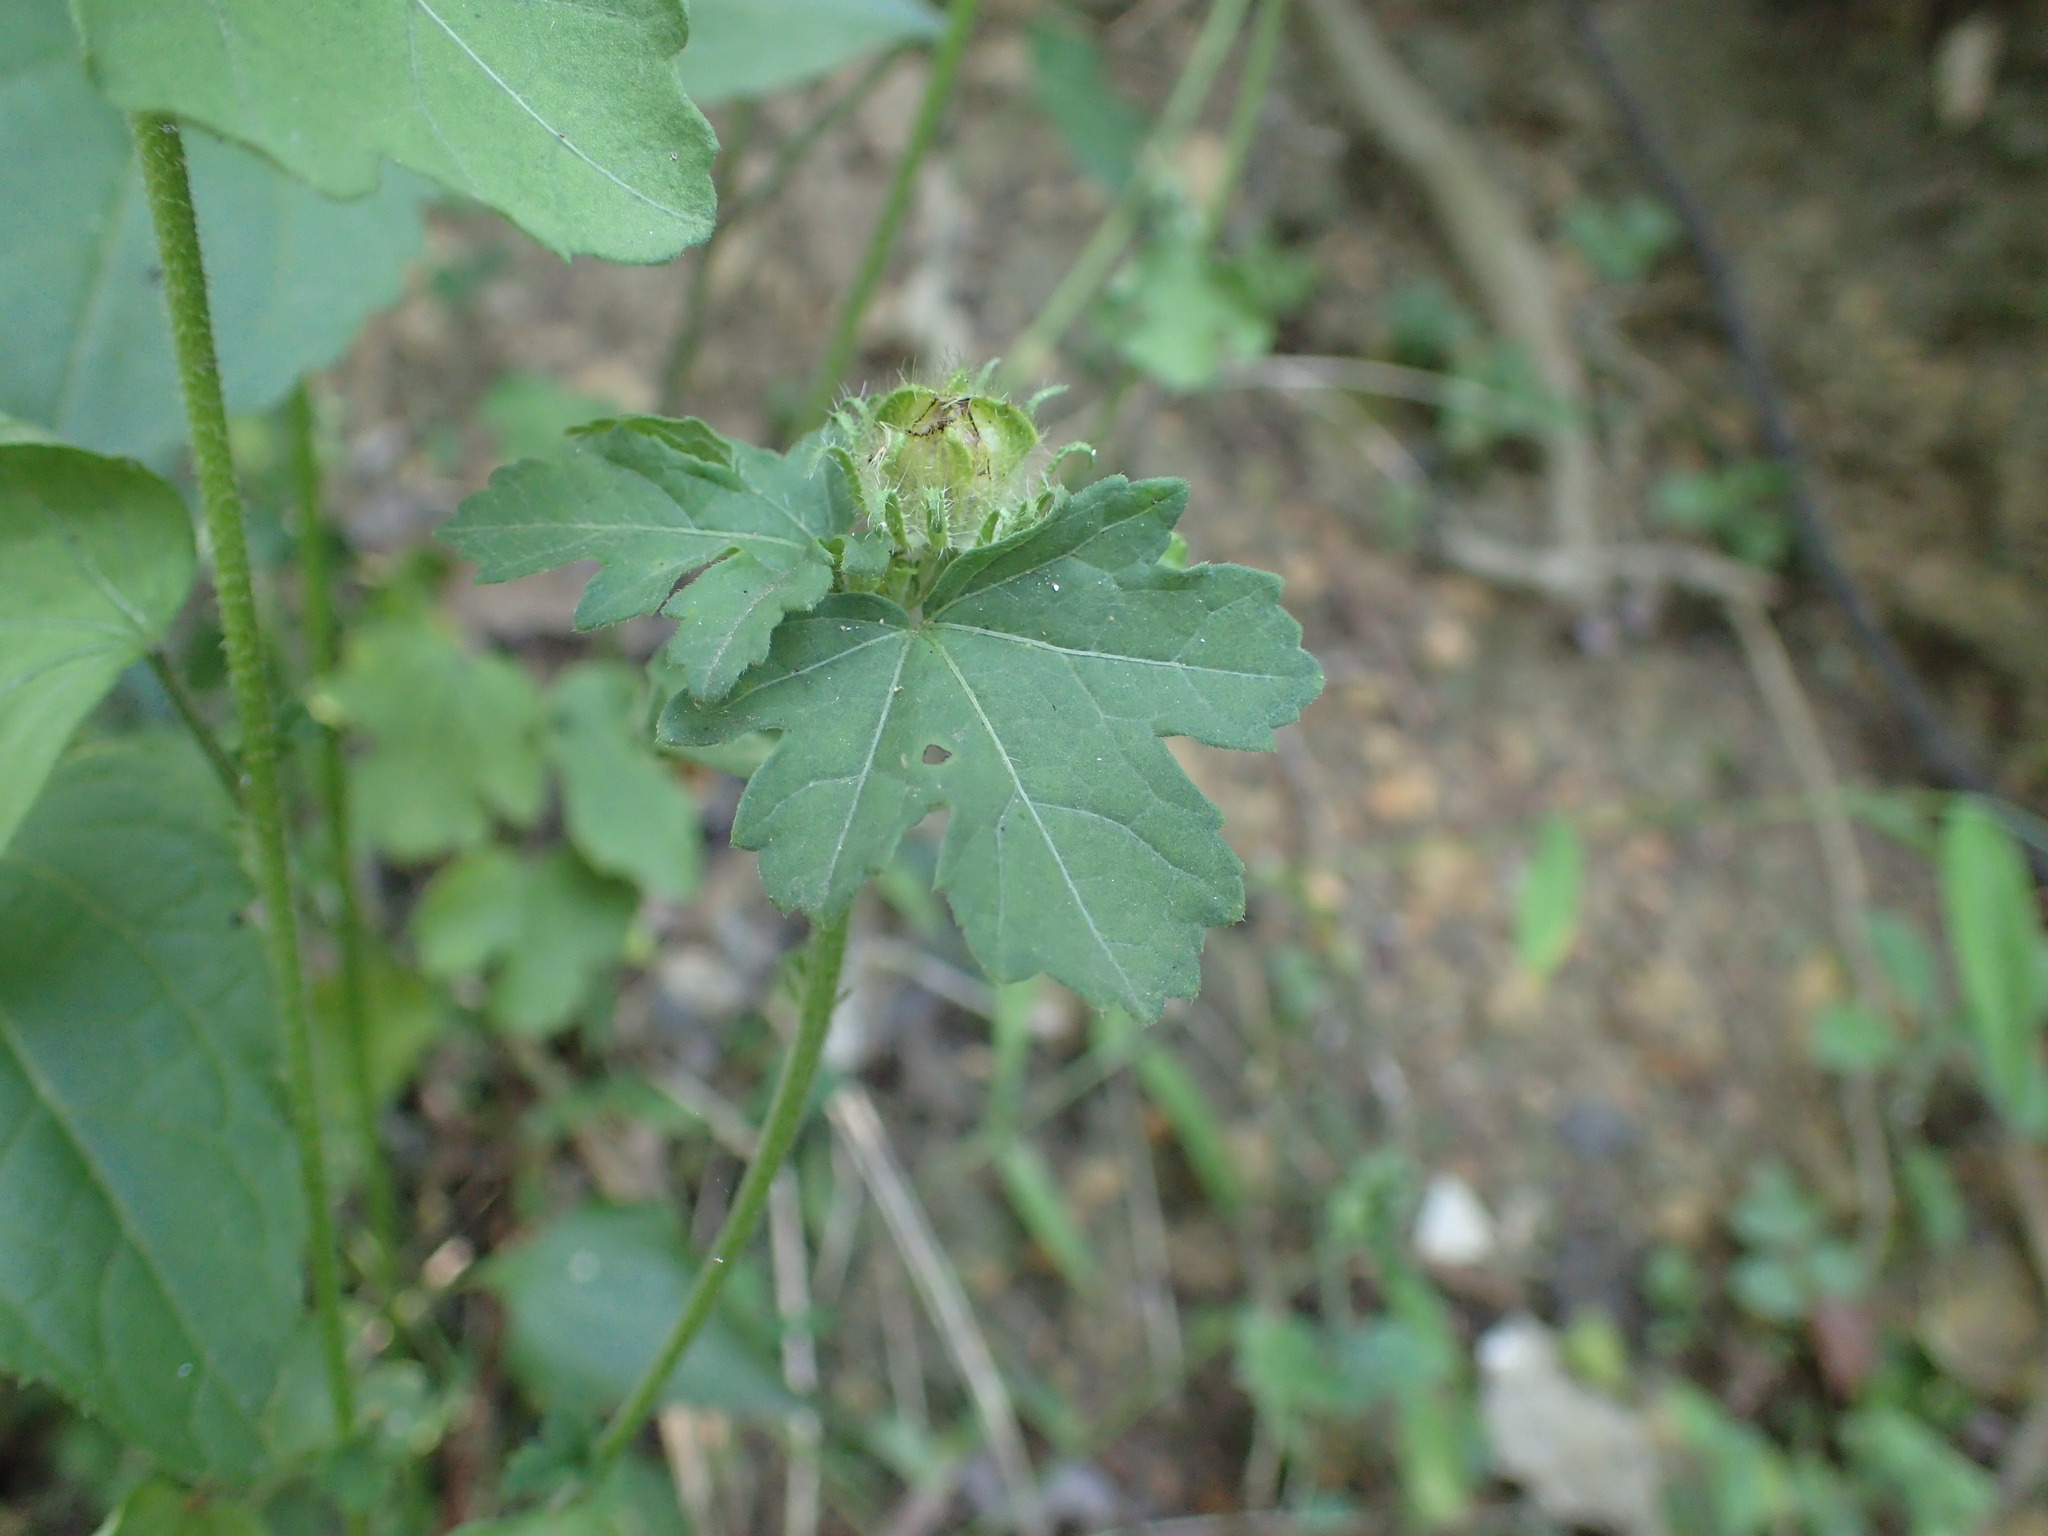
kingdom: Plantae
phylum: Tracheophyta
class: Magnoliopsida
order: Malvales
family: Malvaceae
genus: Hibiscus
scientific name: Hibiscus trionum
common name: Bladder ketmia
